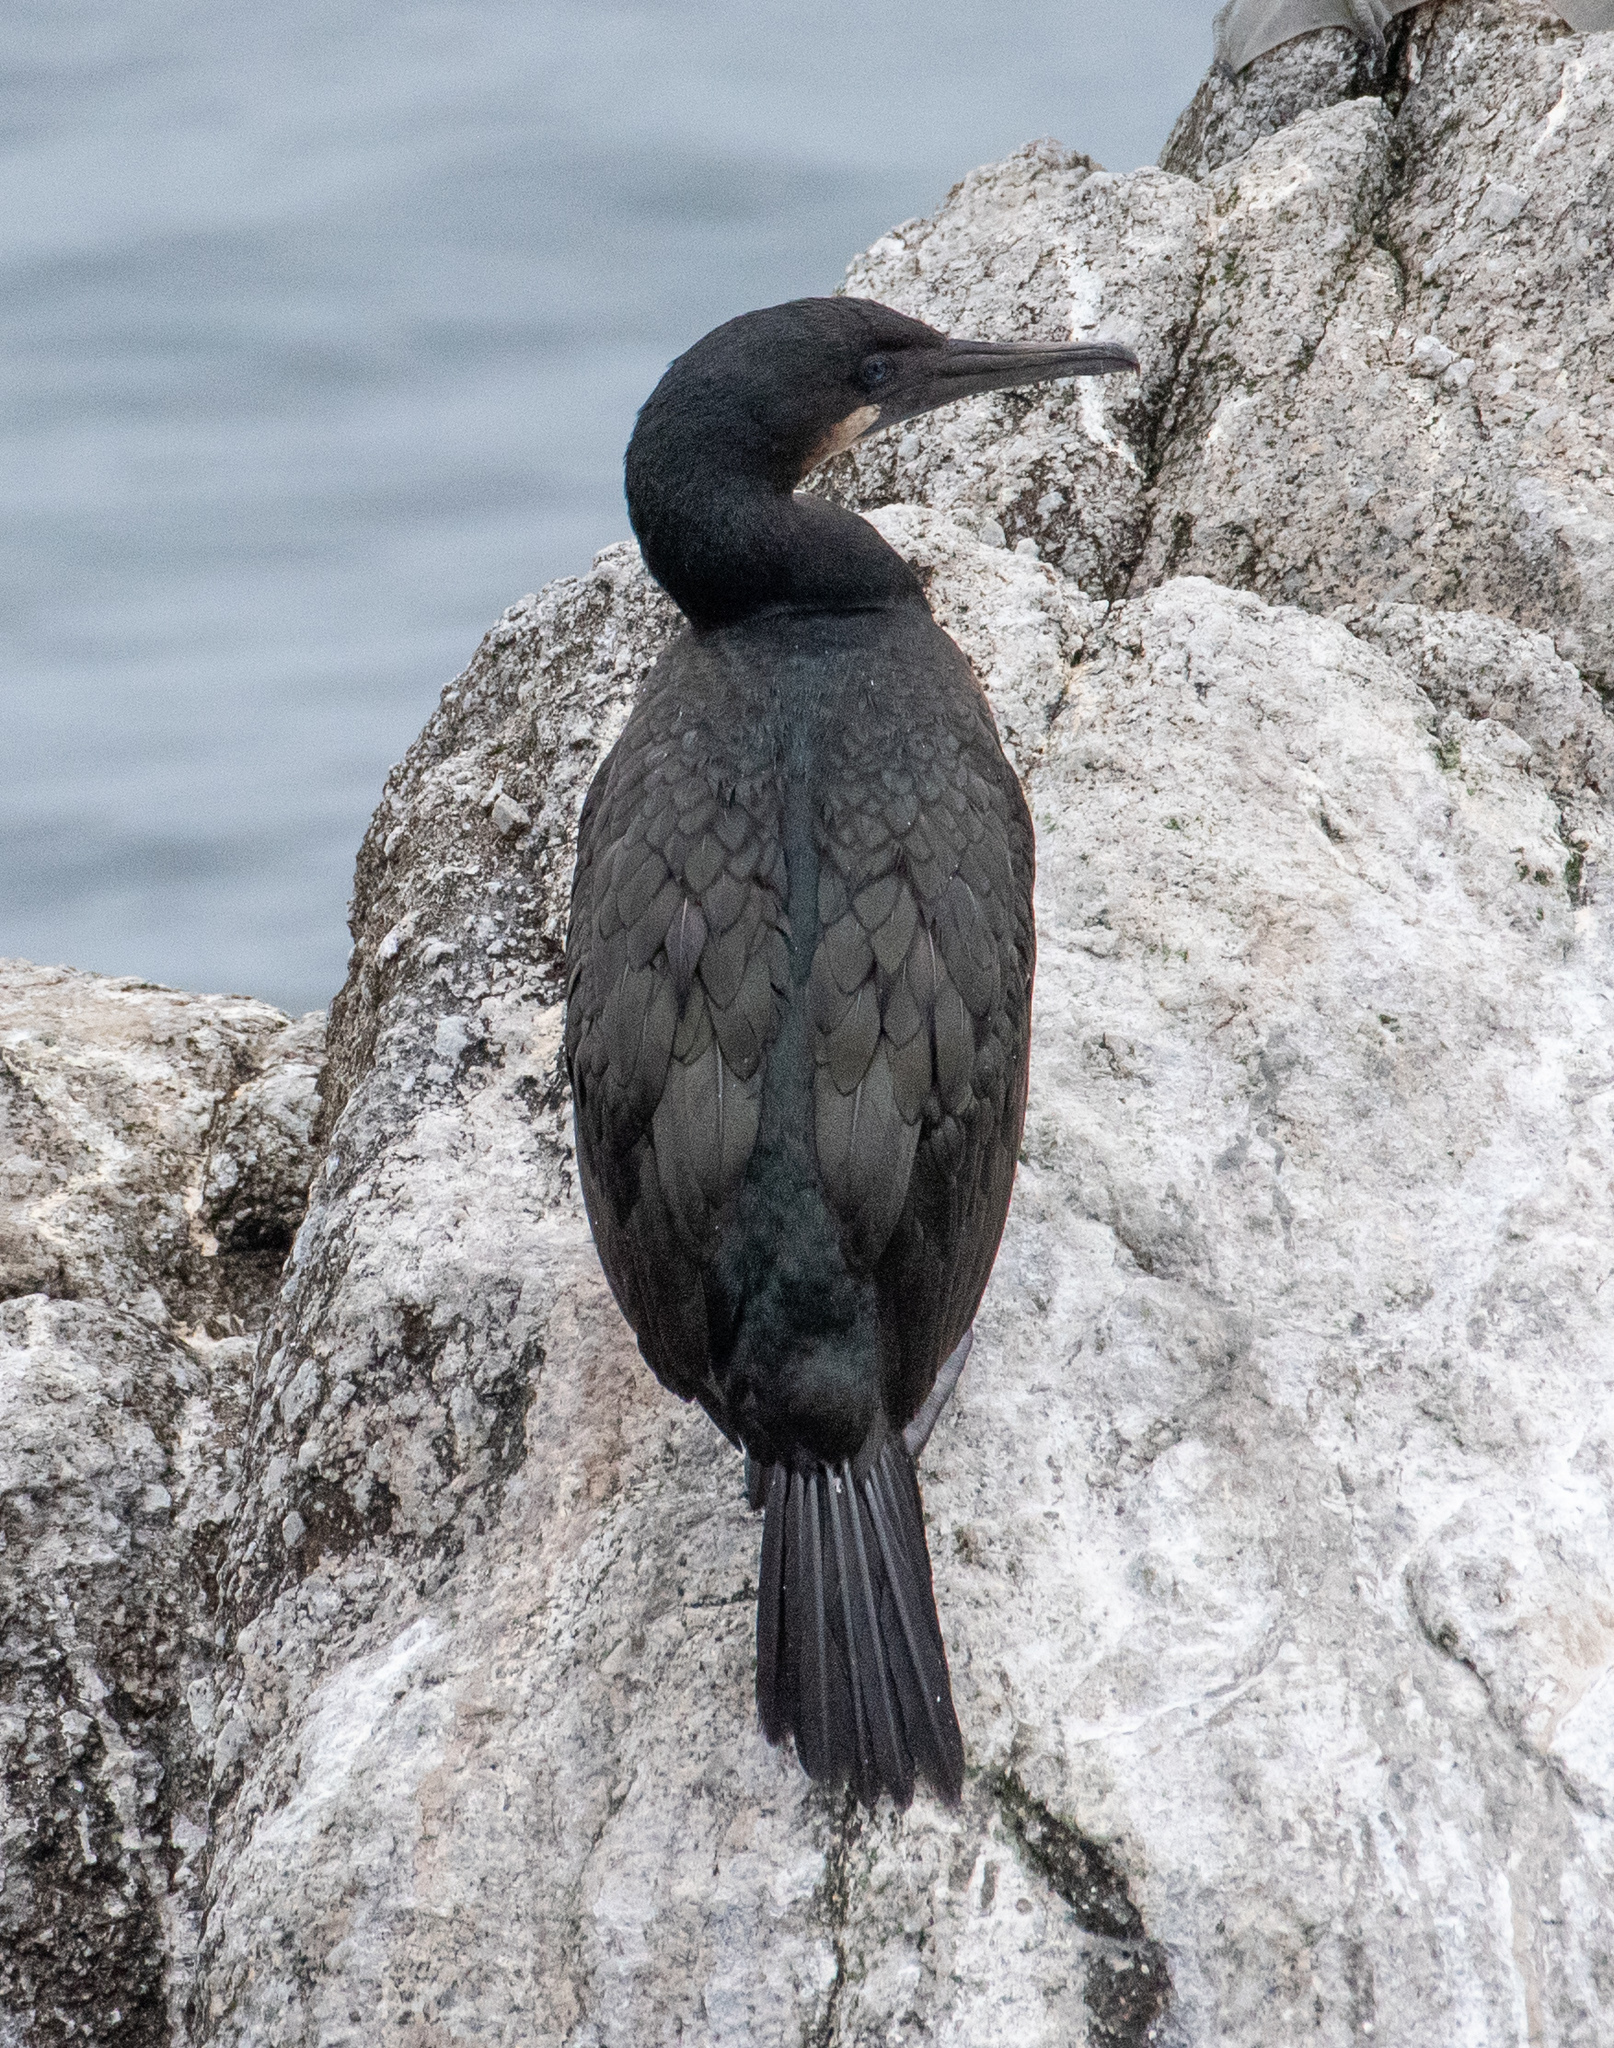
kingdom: Animalia
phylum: Chordata
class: Aves
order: Suliformes
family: Phalacrocoracidae
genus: Urile
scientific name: Urile penicillatus
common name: Brandt's cormorant
